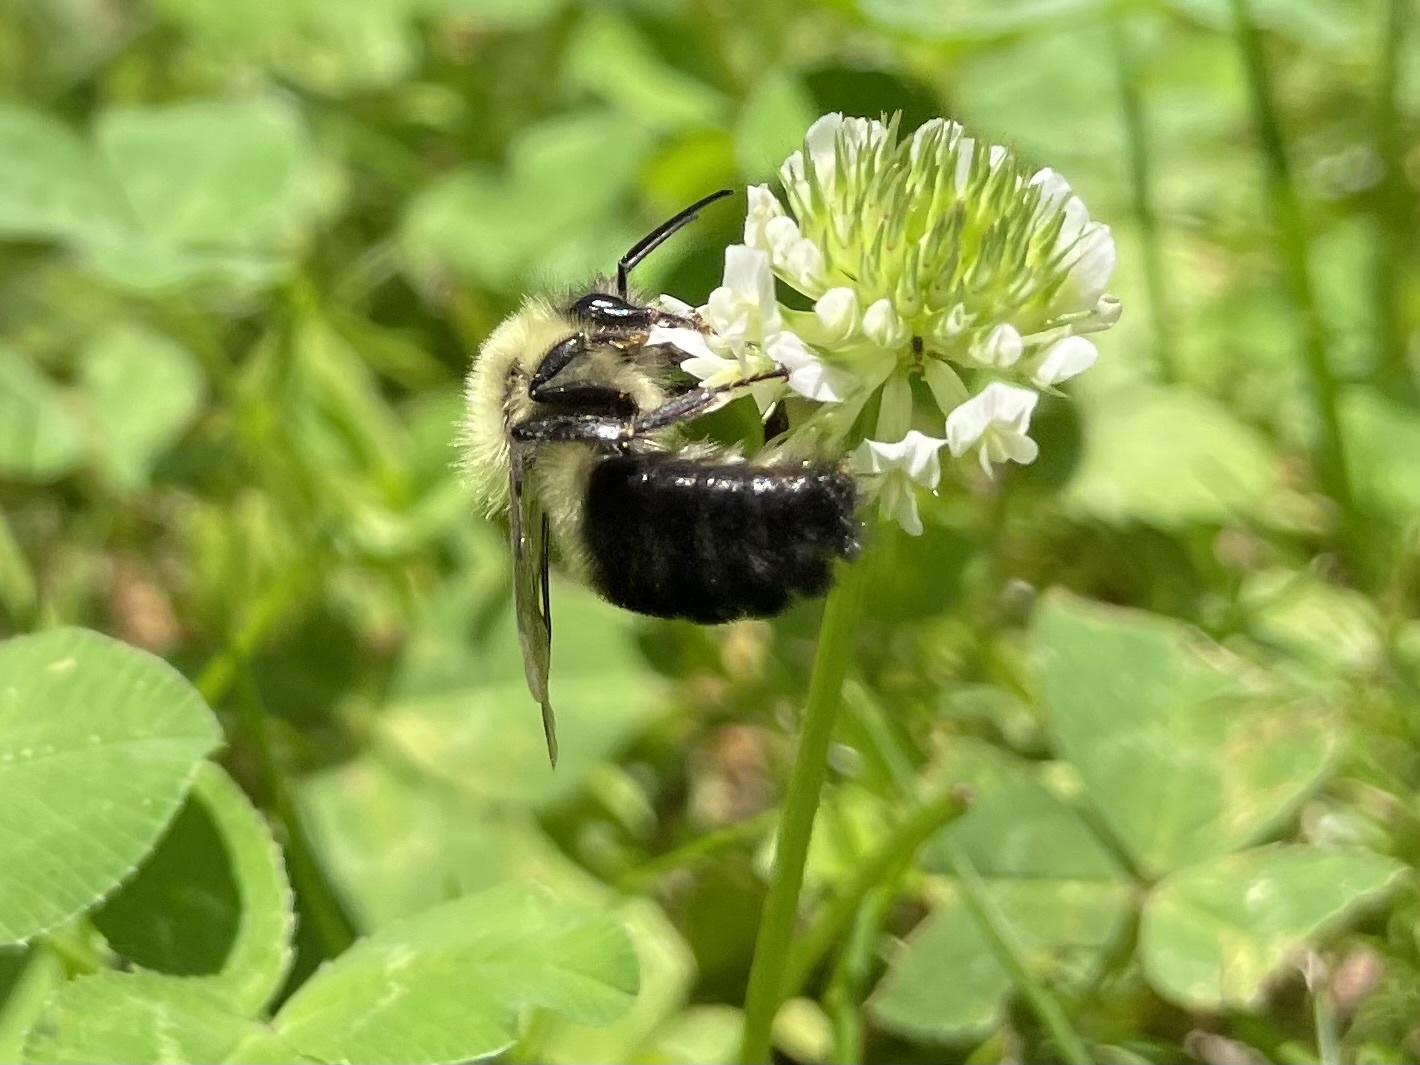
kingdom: Animalia
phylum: Arthropoda
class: Insecta
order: Hymenoptera
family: Apidae
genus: Bombus
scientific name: Bombus impatiens
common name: Common eastern bumble bee
